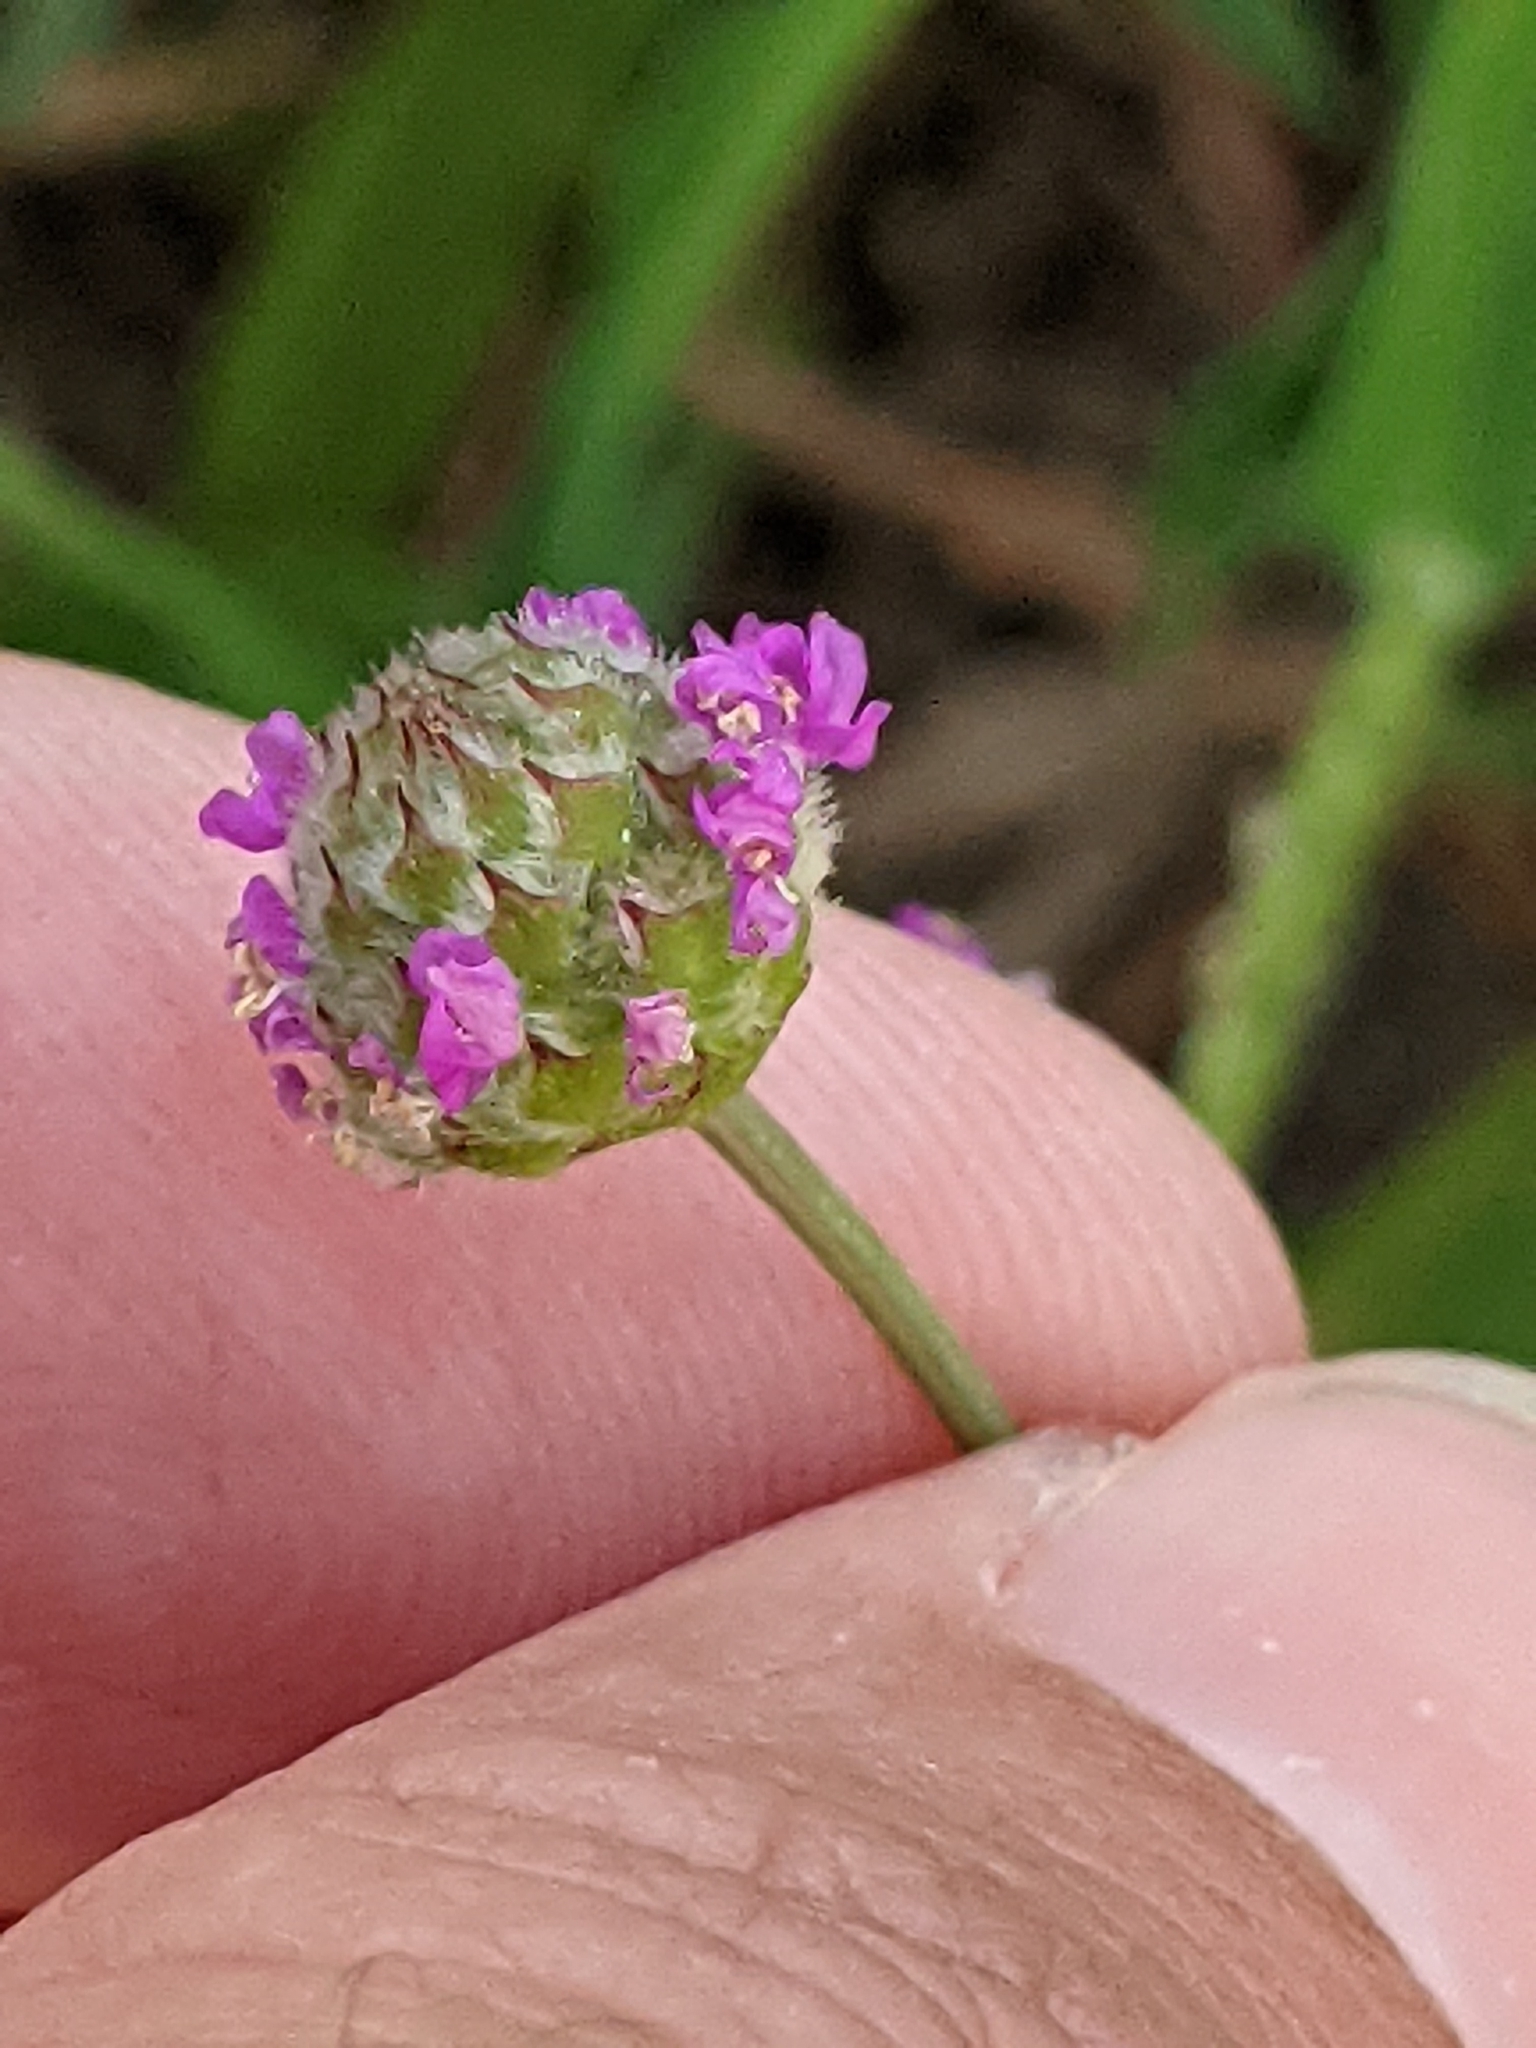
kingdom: Plantae
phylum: Tracheophyta
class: Magnoliopsida
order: Fabales
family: Fabaceae
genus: Dalea
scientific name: Dalea emarginata
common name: Wedgeleaf prairie clover
